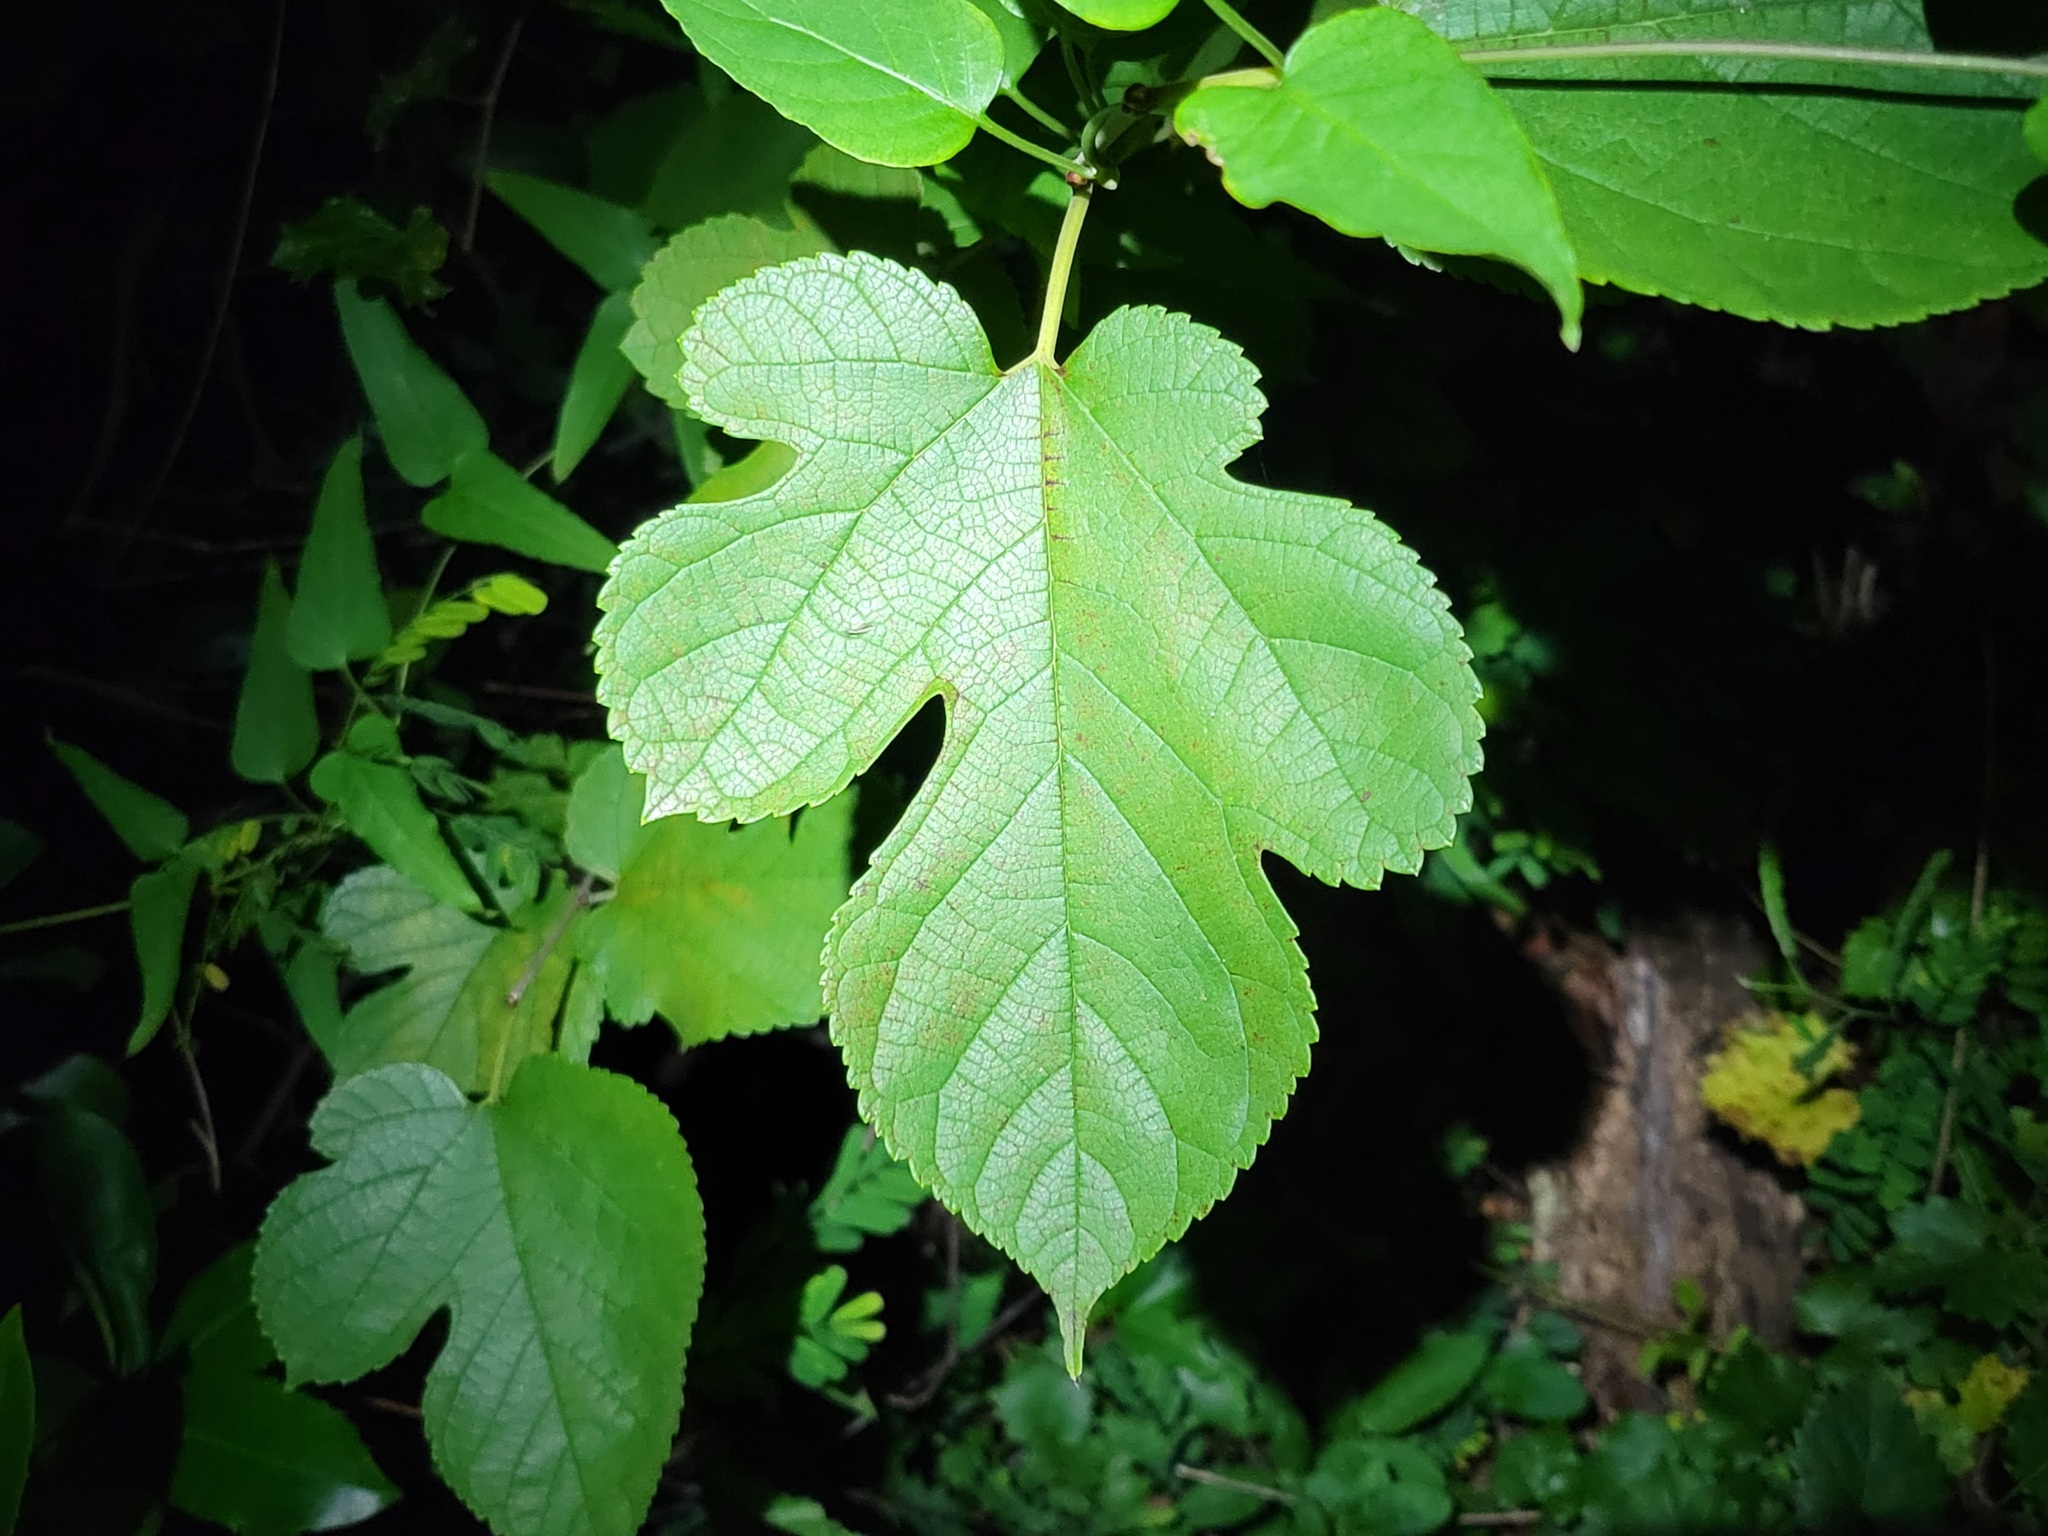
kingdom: Plantae
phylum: Tracheophyta
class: Magnoliopsida
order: Rosales
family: Moraceae
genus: Morus
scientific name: Morus rubra
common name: Red mulberry
